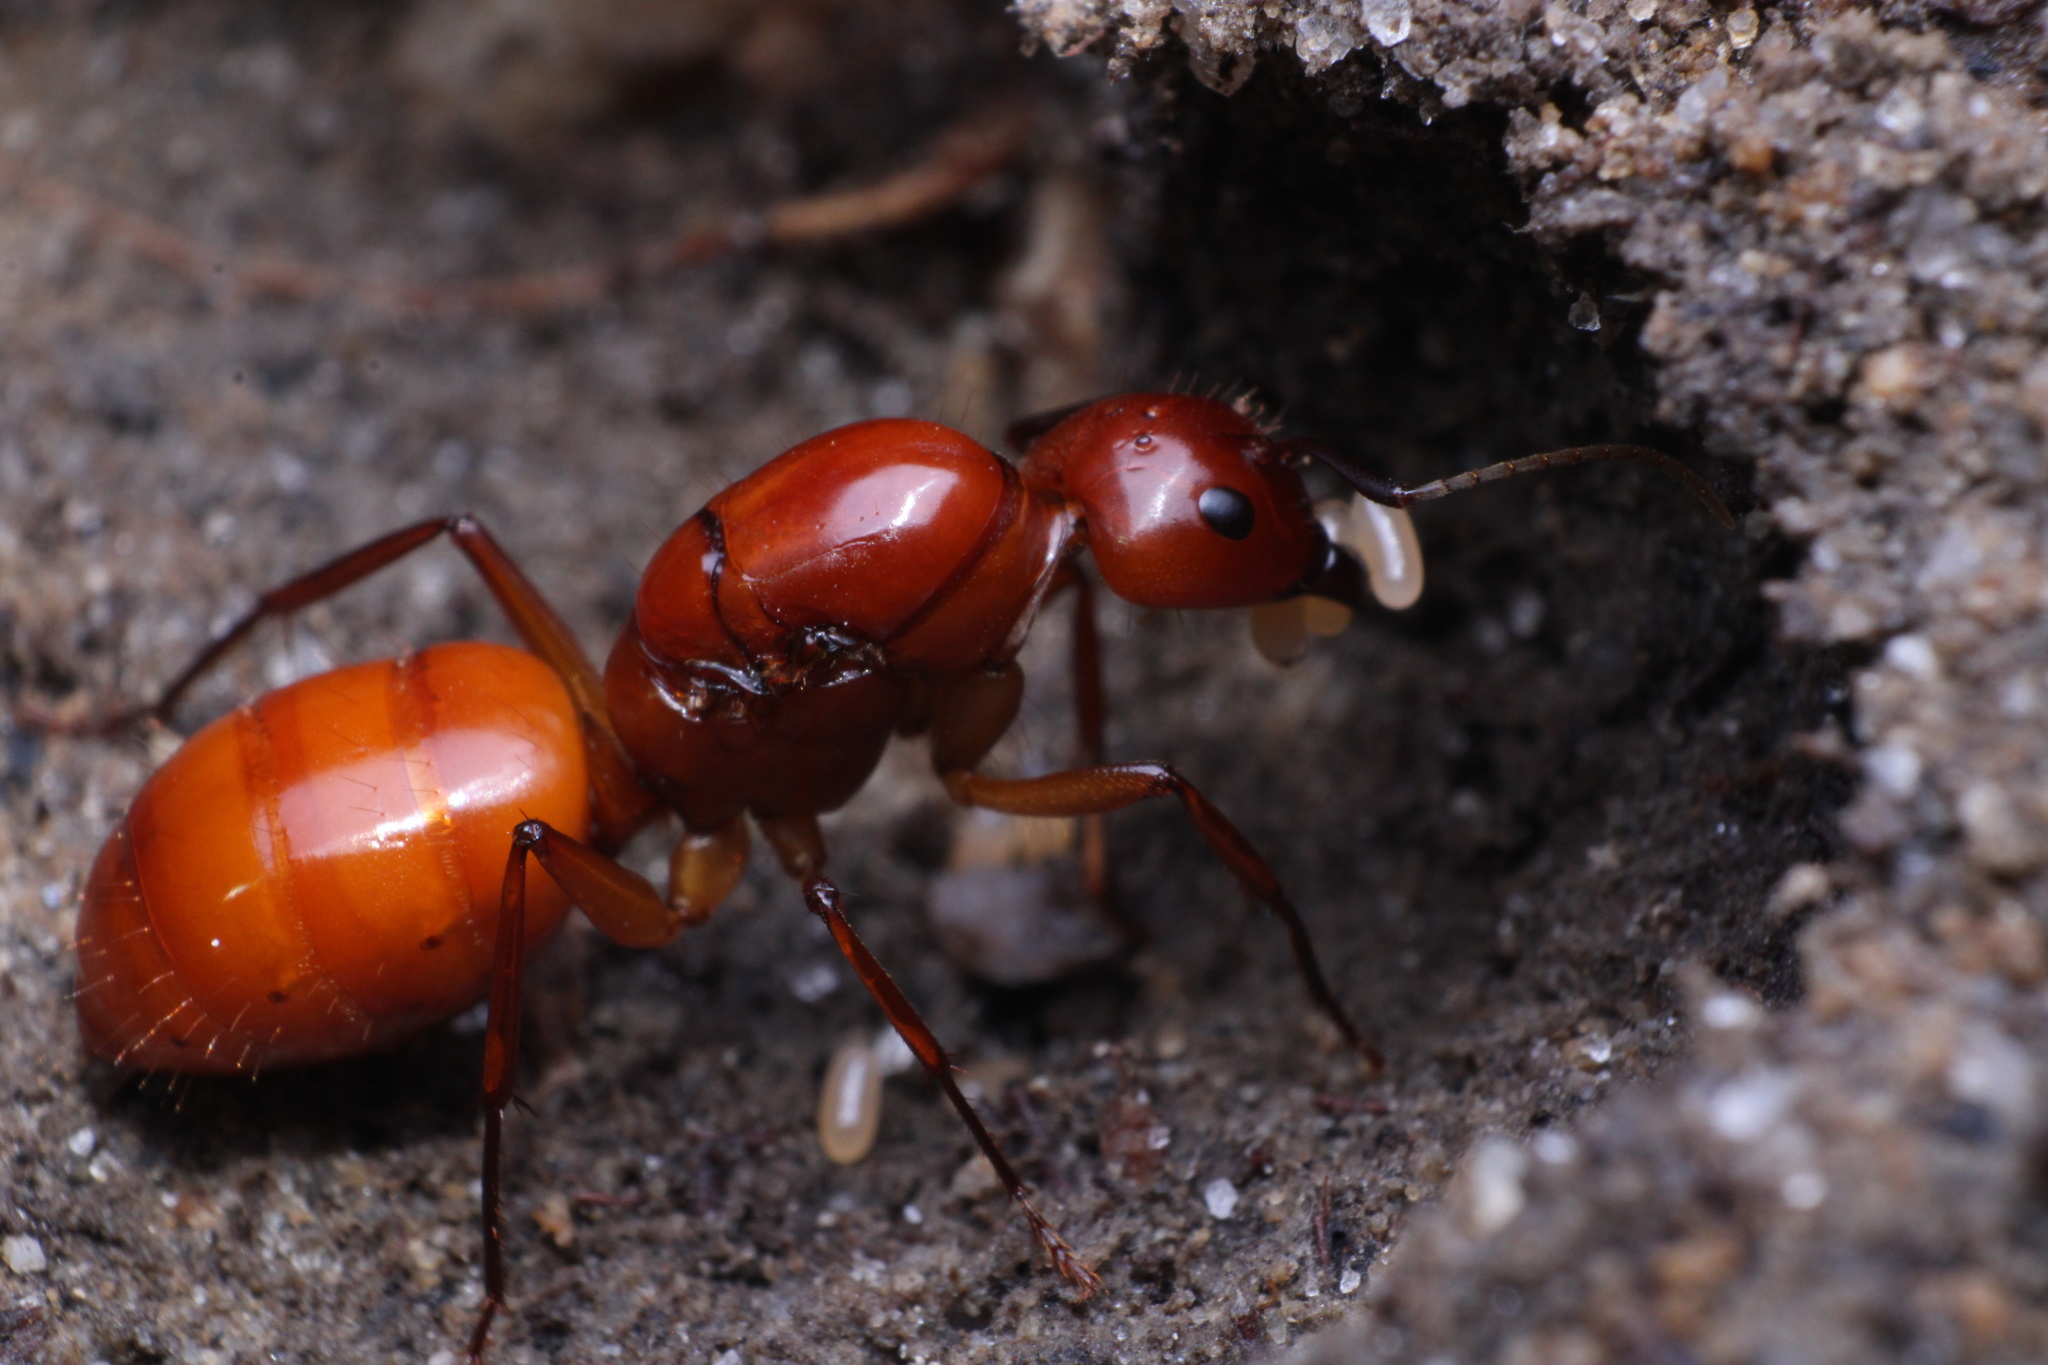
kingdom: Animalia
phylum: Arthropoda
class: Insecta
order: Hymenoptera
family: Formicidae
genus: Camponotus
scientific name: Camponotus castaneus
